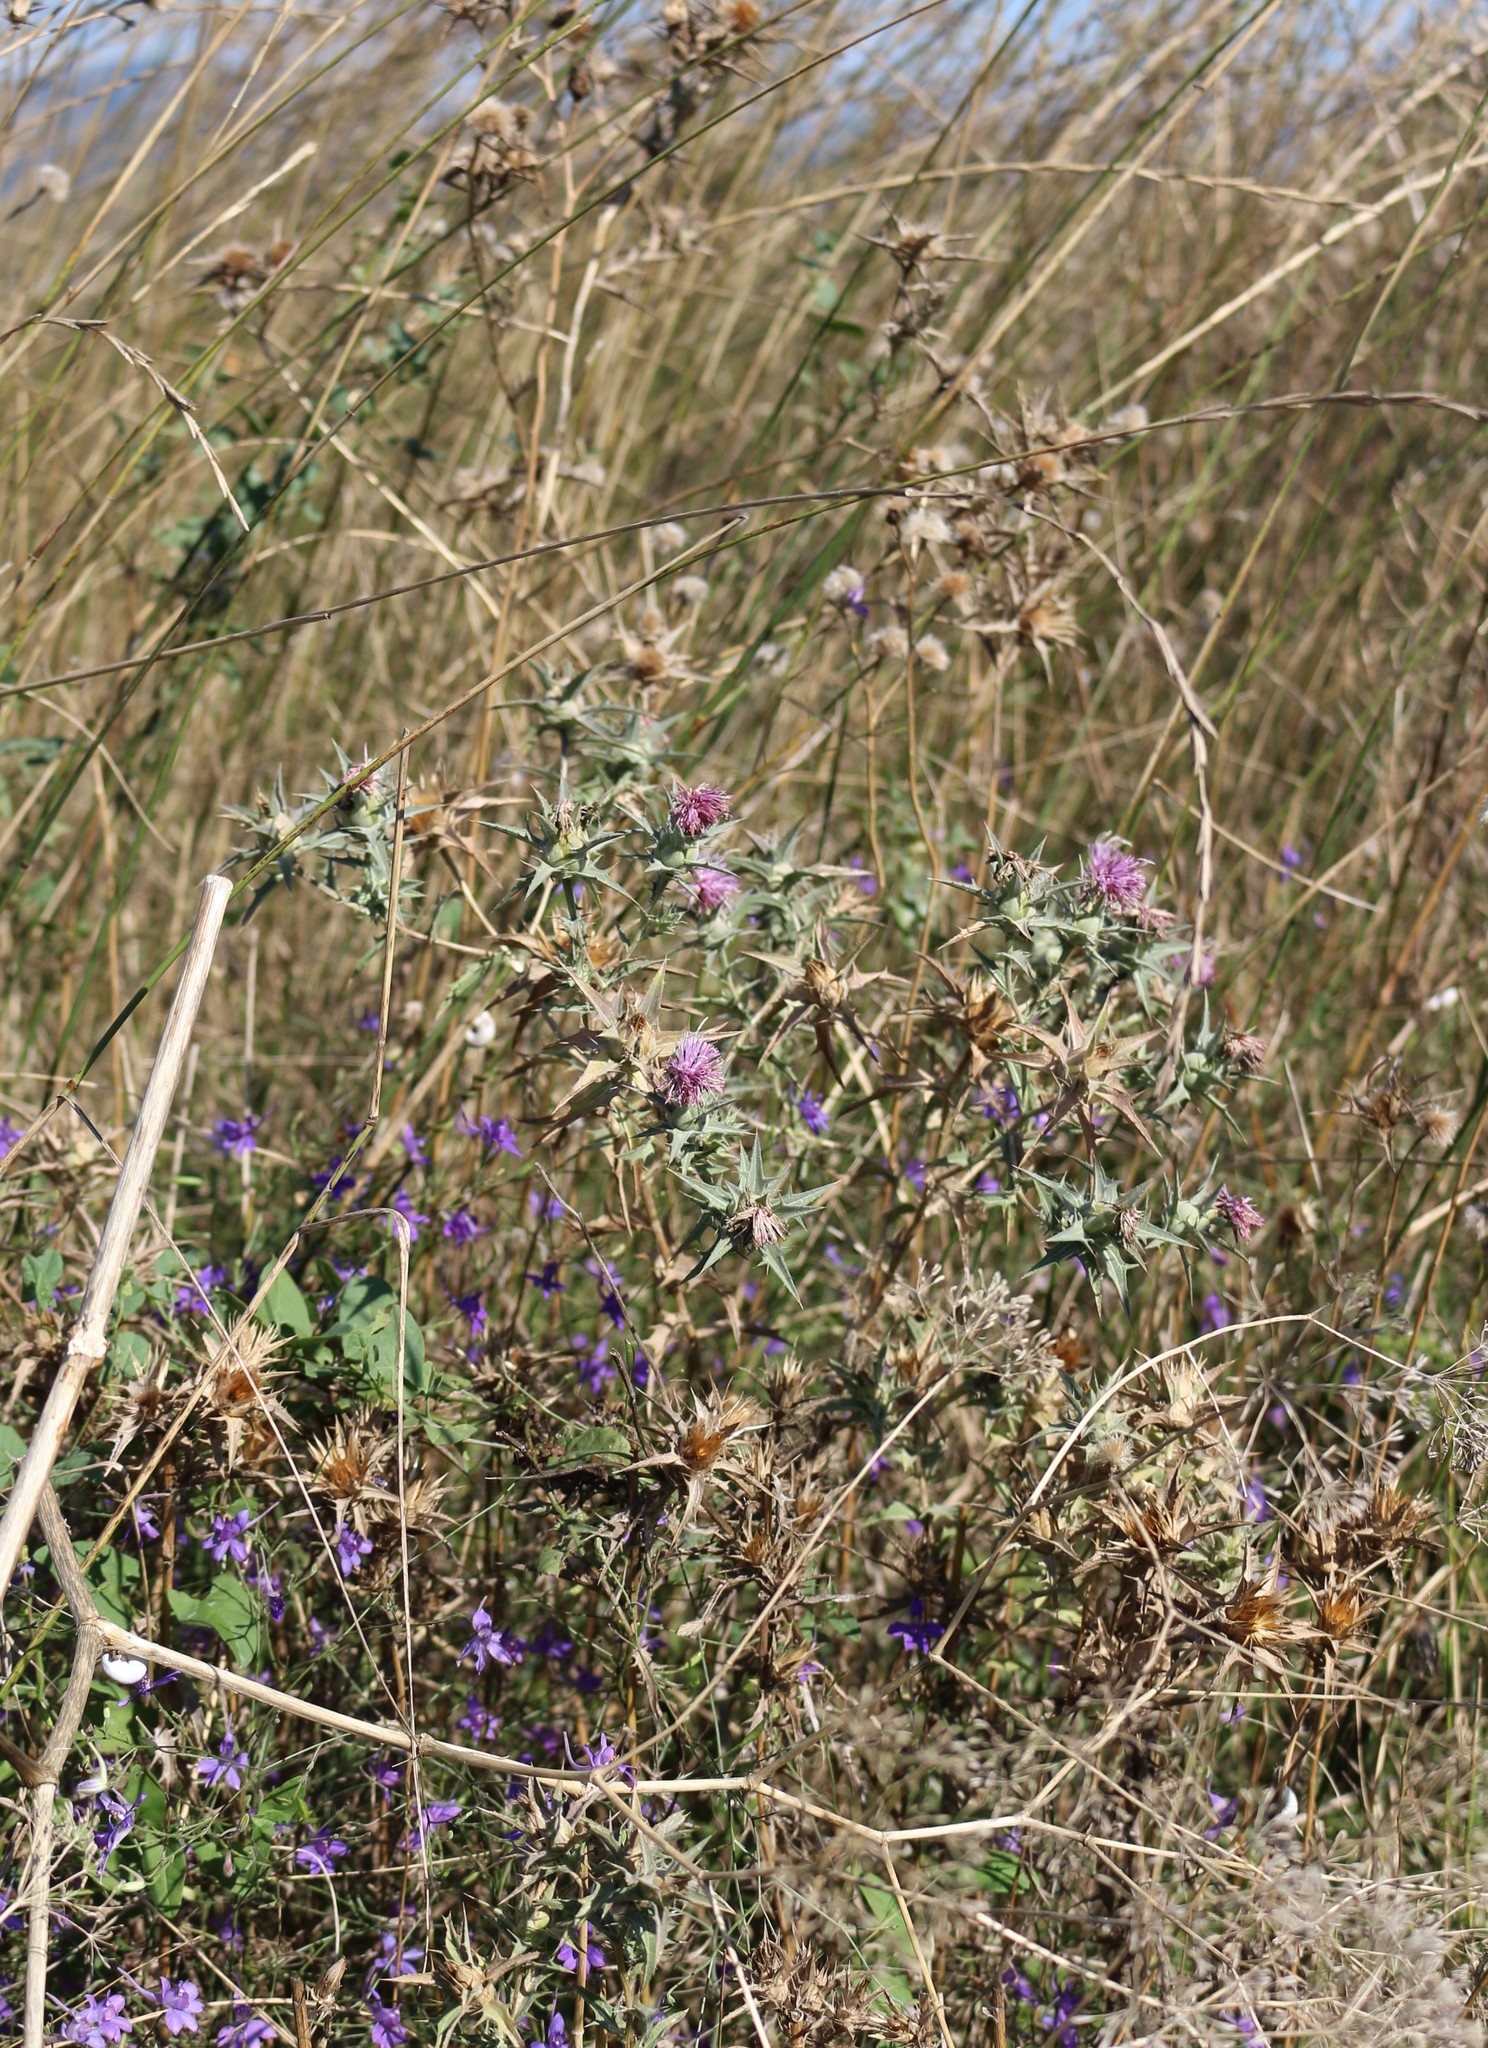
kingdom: Plantae
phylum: Tracheophyta
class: Magnoliopsida
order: Asterales
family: Asteraceae
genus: Carthamus
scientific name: Carthamus glaucus
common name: Mediterranean thistle
